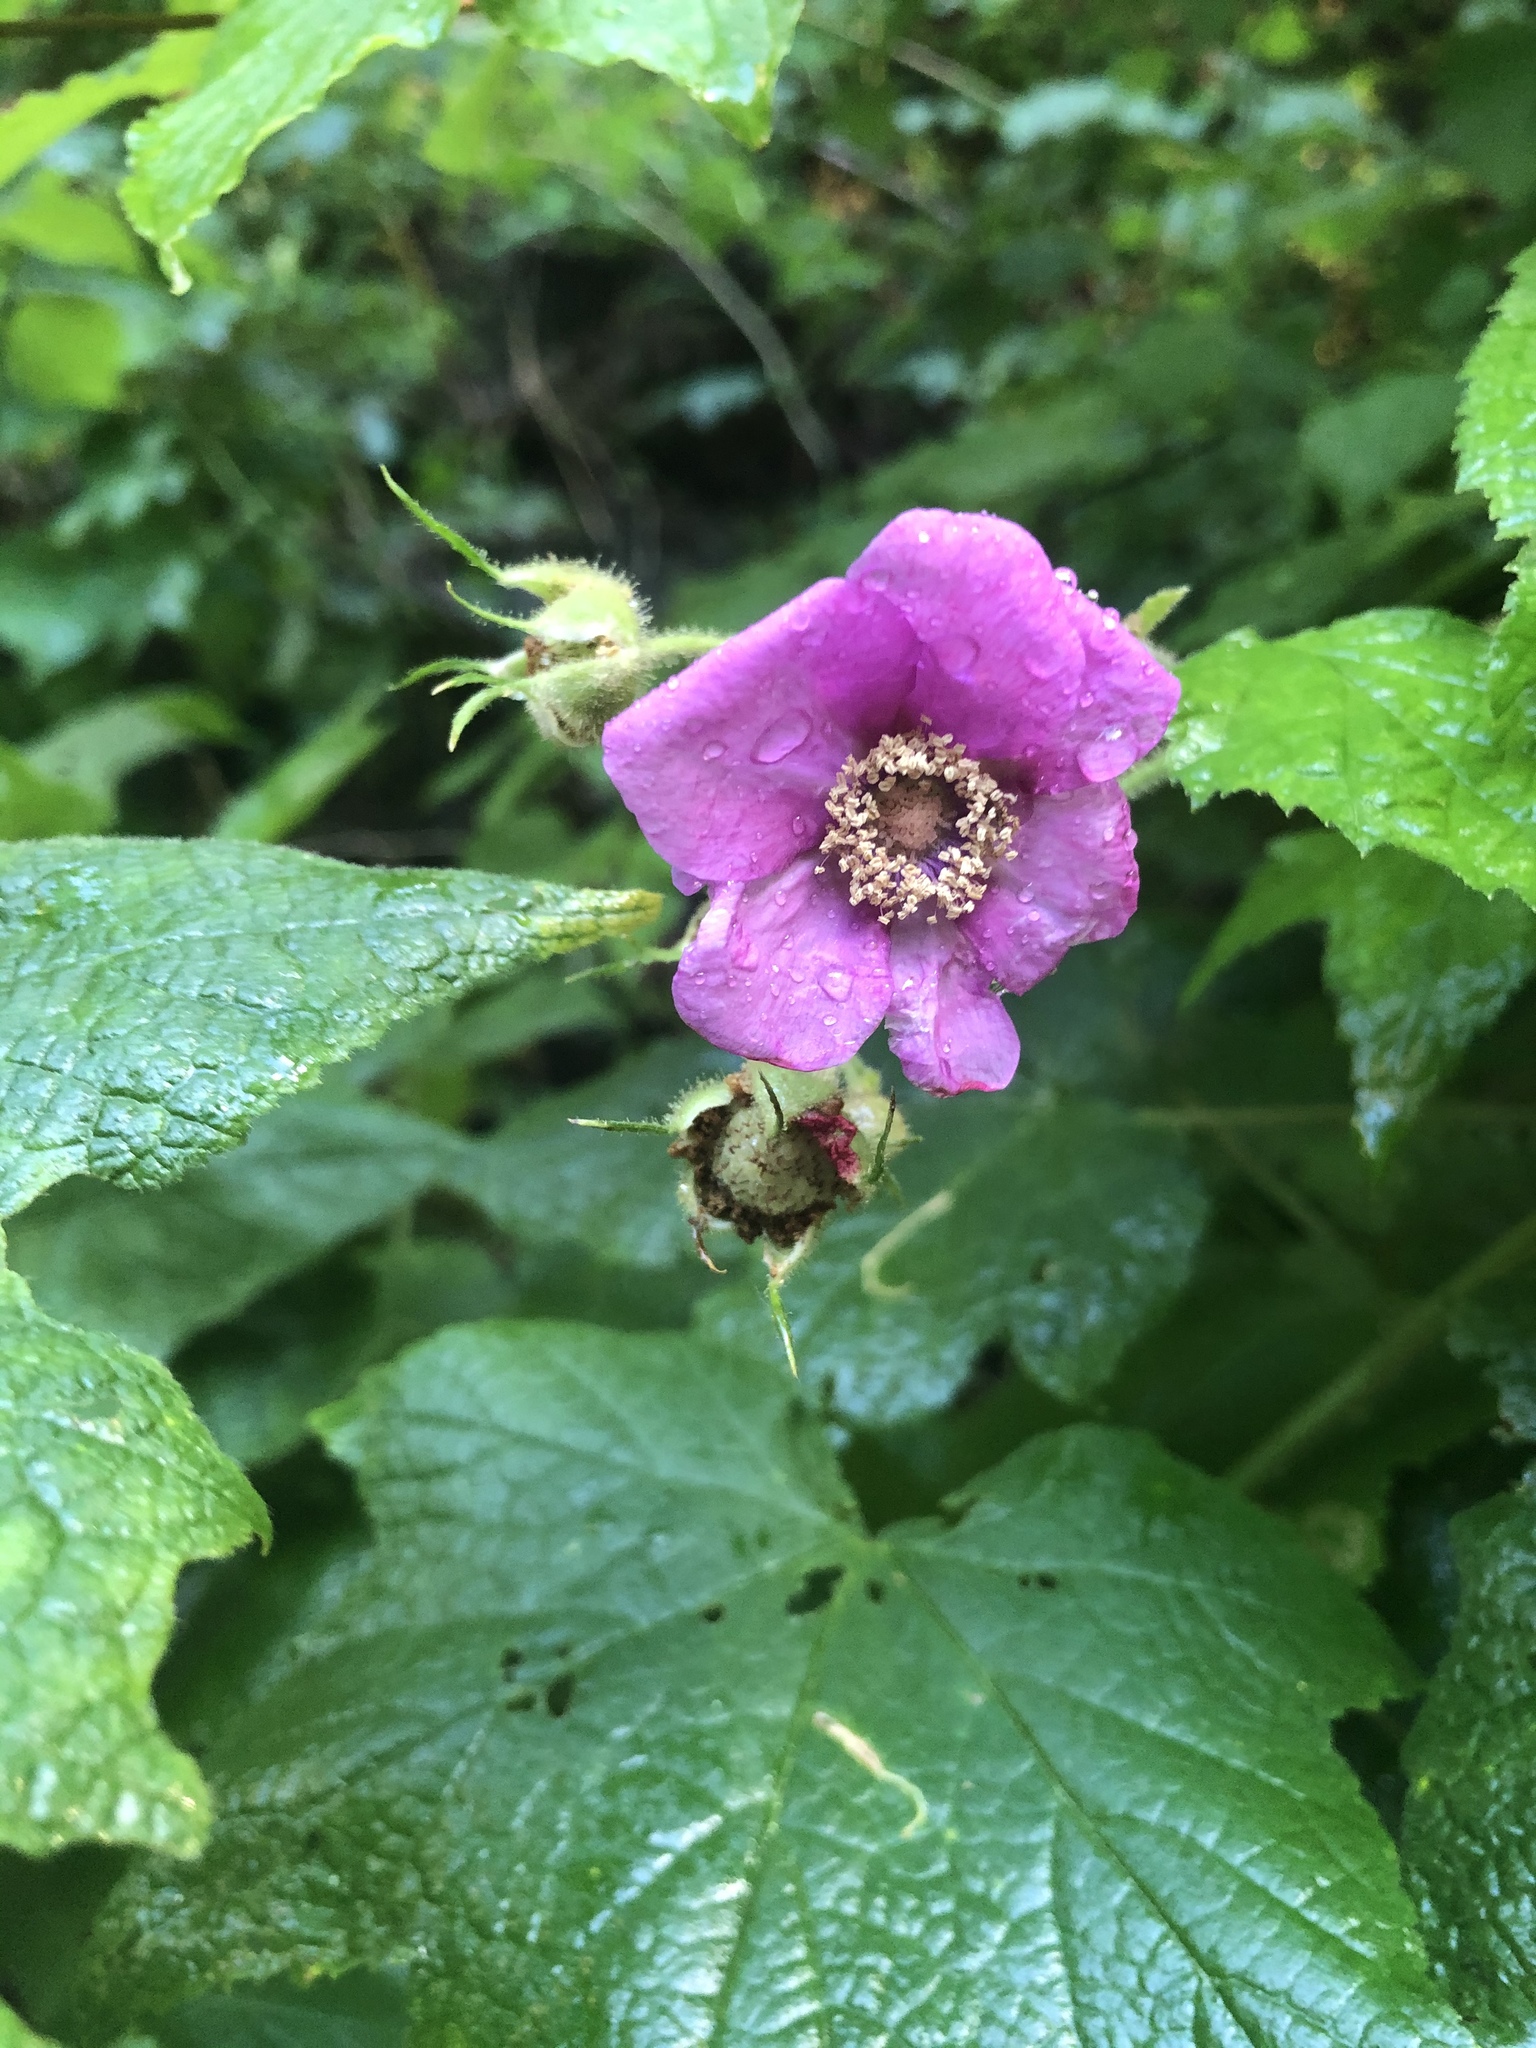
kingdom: Plantae
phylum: Tracheophyta
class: Magnoliopsida
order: Rosales
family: Rosaceae
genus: Rubus
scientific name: Rubus odoratus
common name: Purple-flowered raspberry
